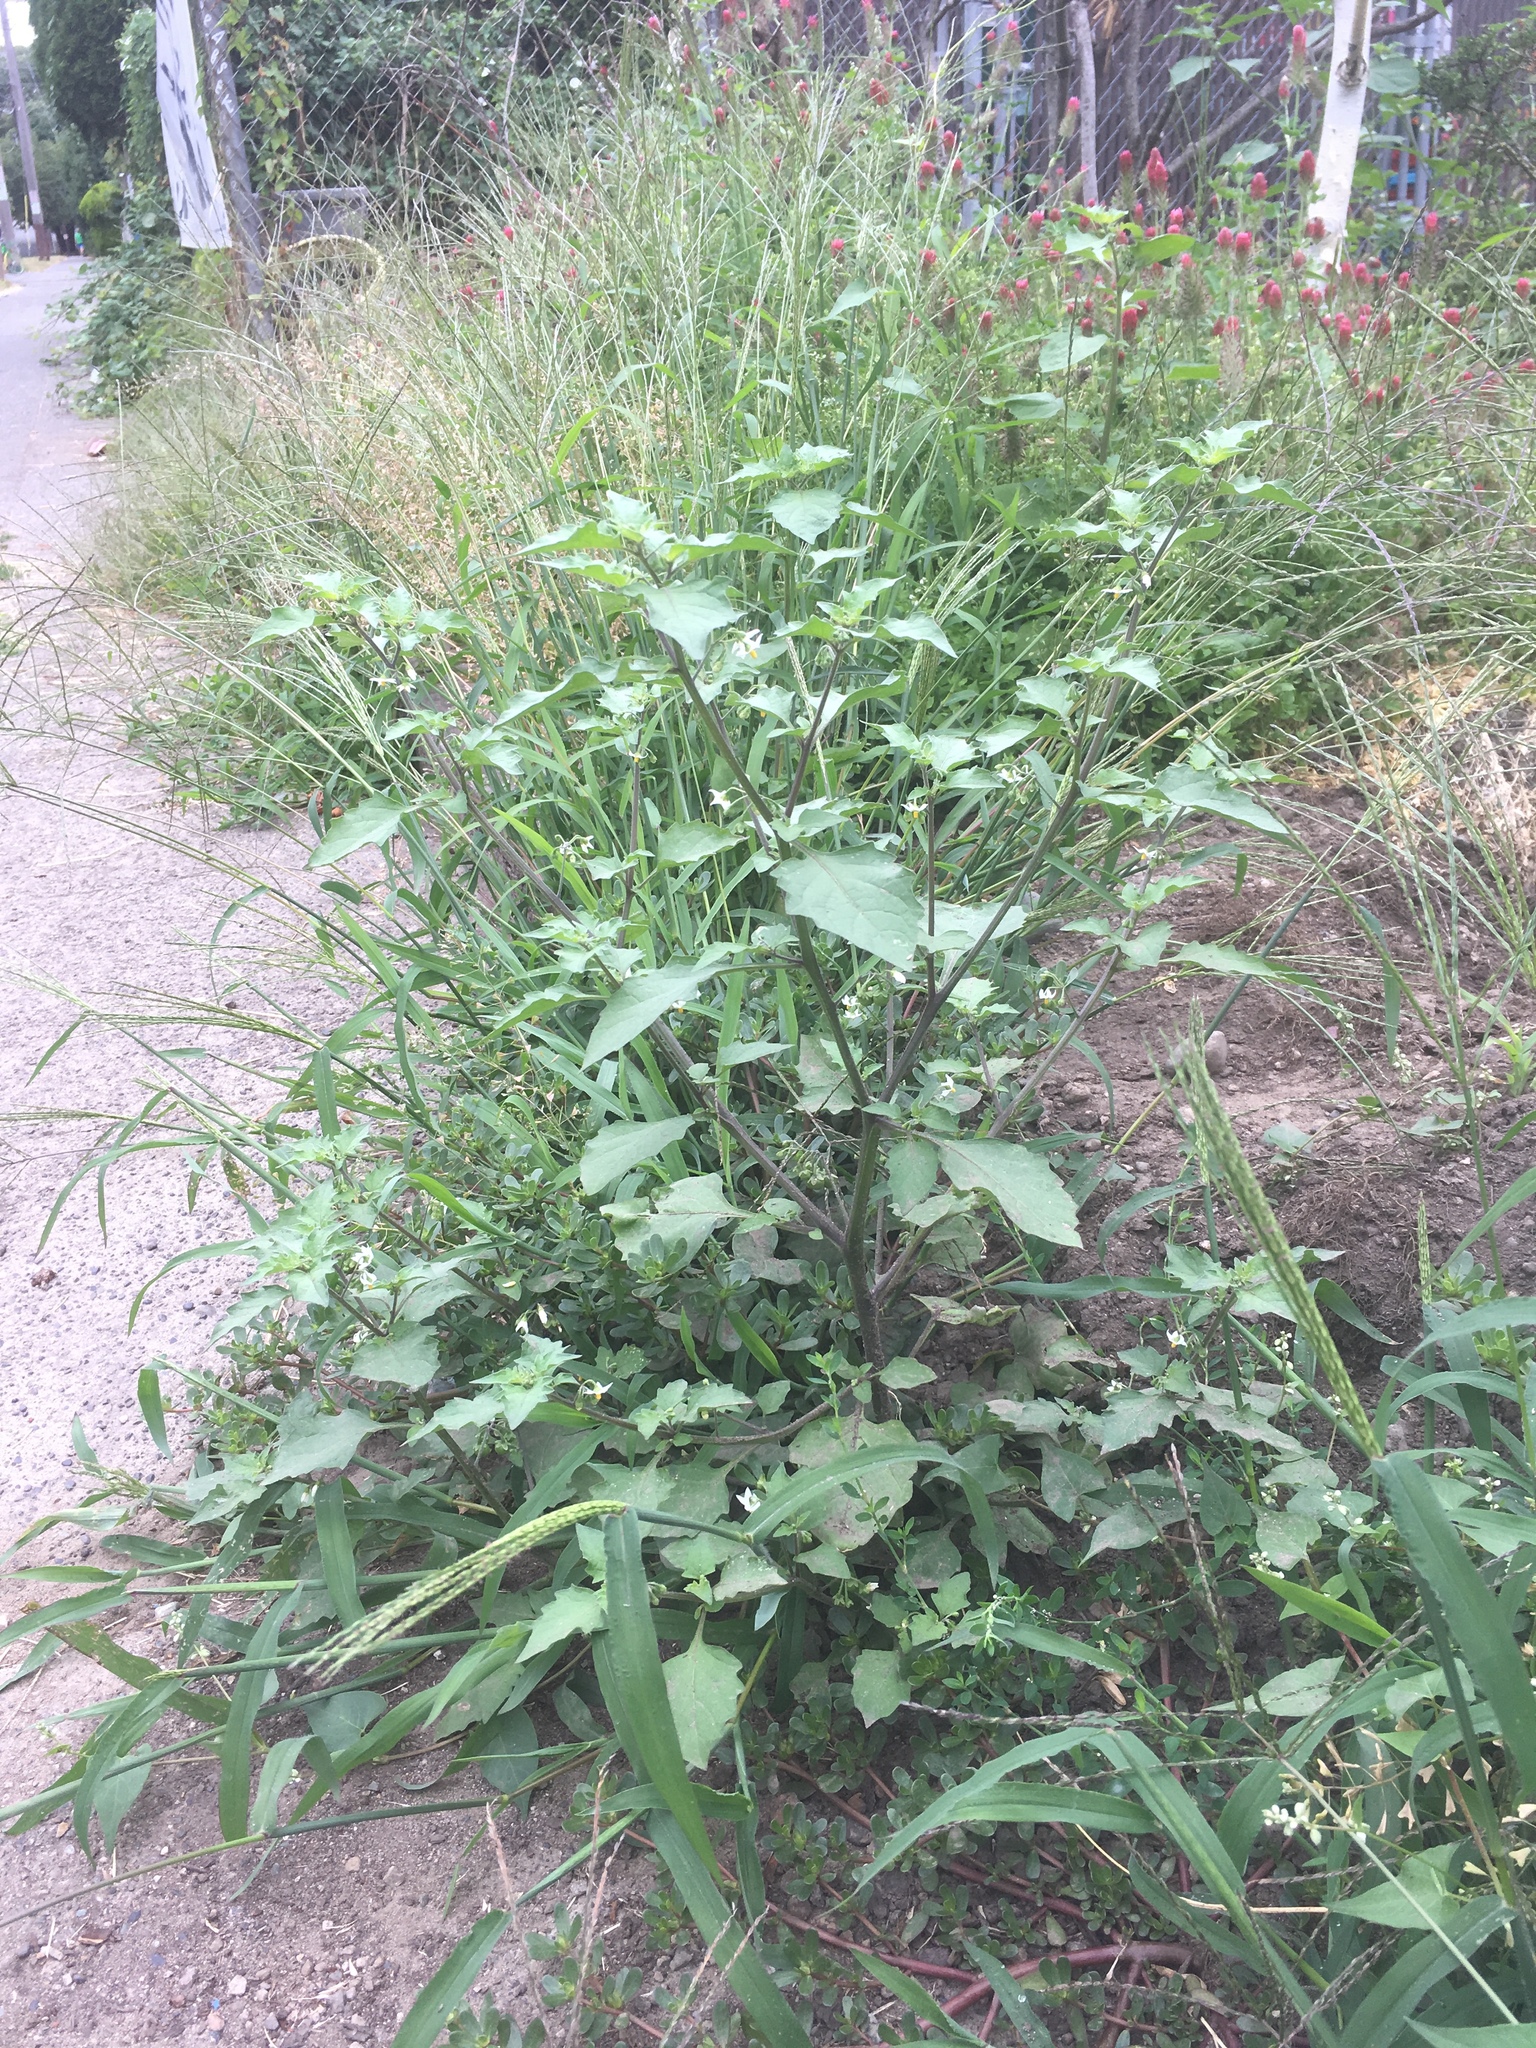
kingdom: Plantae
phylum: Tracheophyta
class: Magnoliopsida
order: Solanales
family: Solanaceae
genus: Solanum
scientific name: Solanum nigrum
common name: Black nightshade
